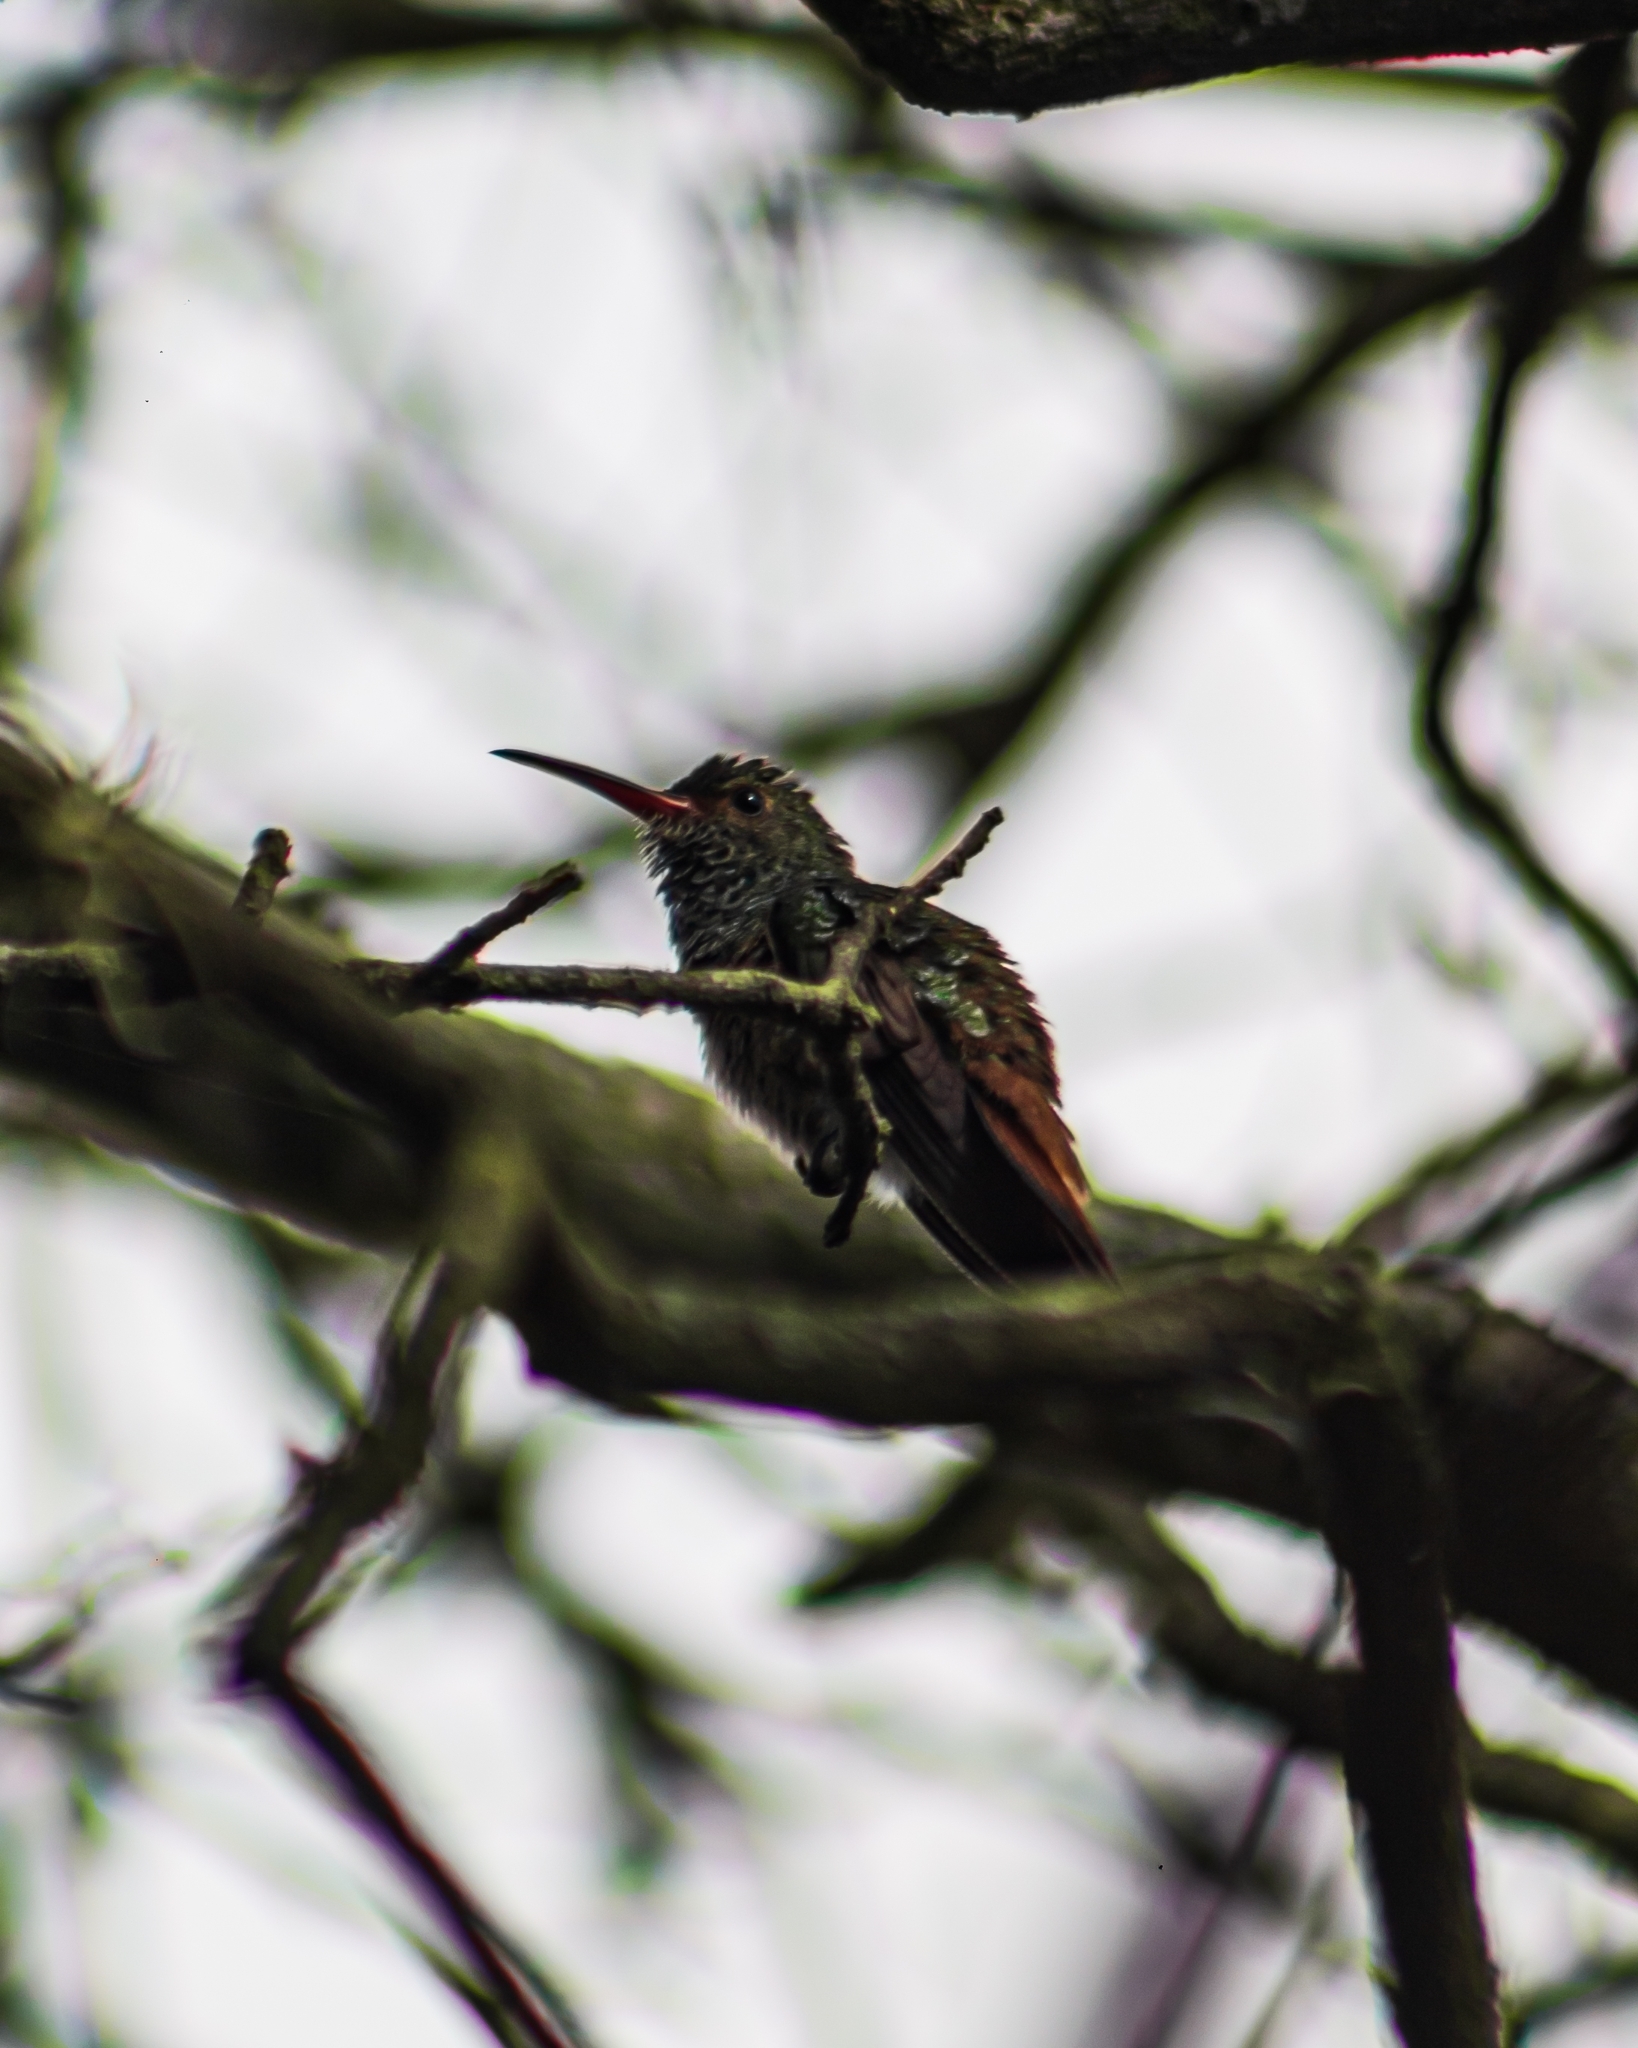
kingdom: Animalia
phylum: Chordata
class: Aves
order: Apodiformes
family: Trochilidae
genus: Amazilia
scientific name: Amazilia tzacatl
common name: Rufous-tailed hummingbird
